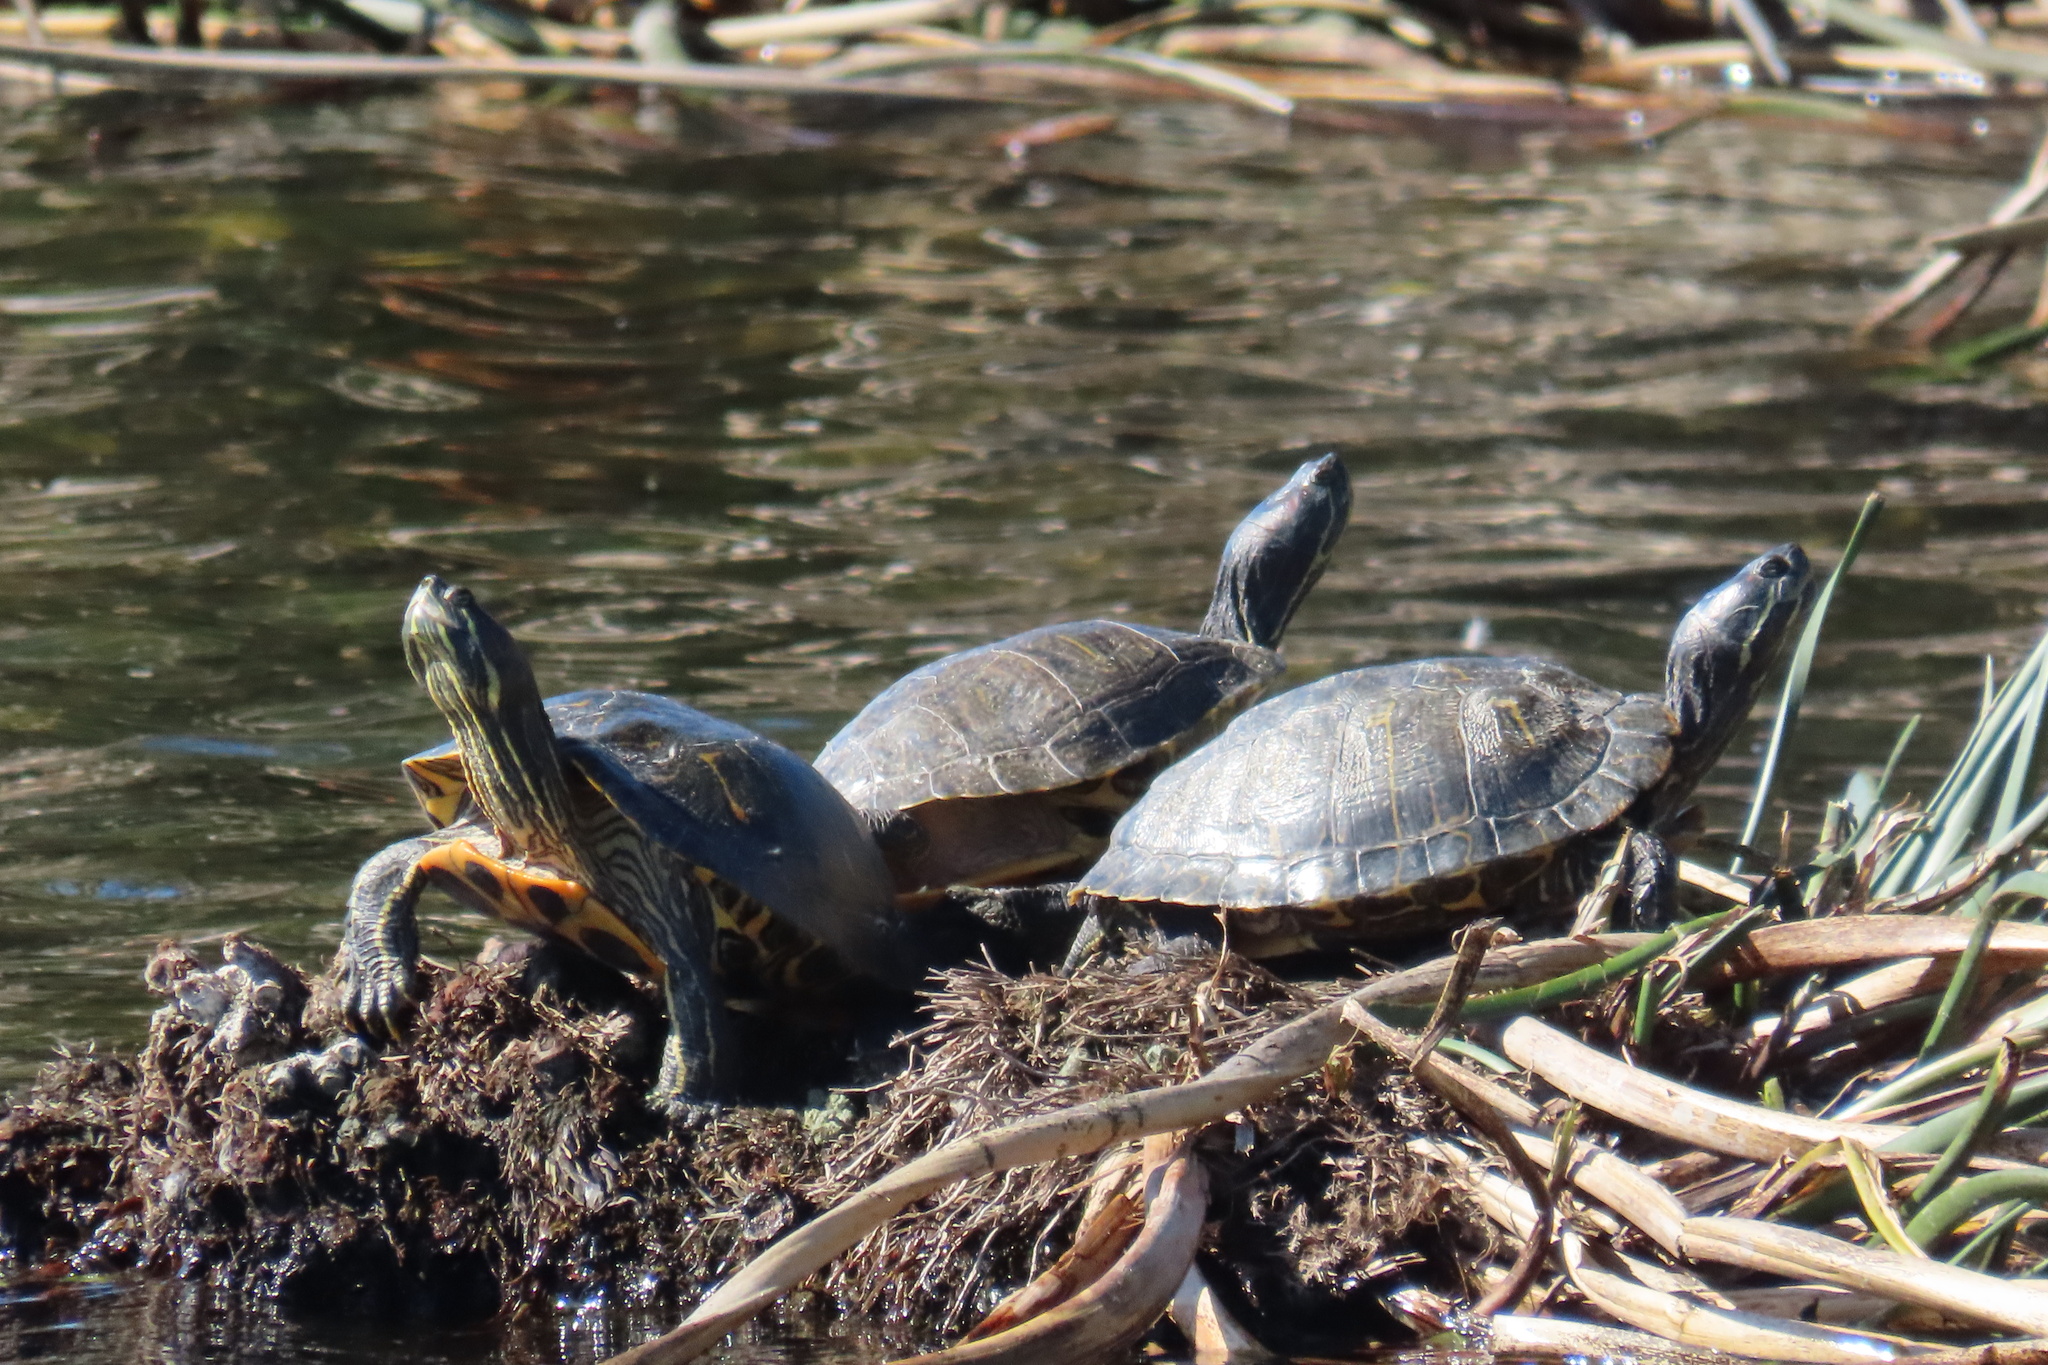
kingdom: Animalia
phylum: Chordata
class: Testudines
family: Emydidae
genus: Trachemys
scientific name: Trachemys scripta
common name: Slider
